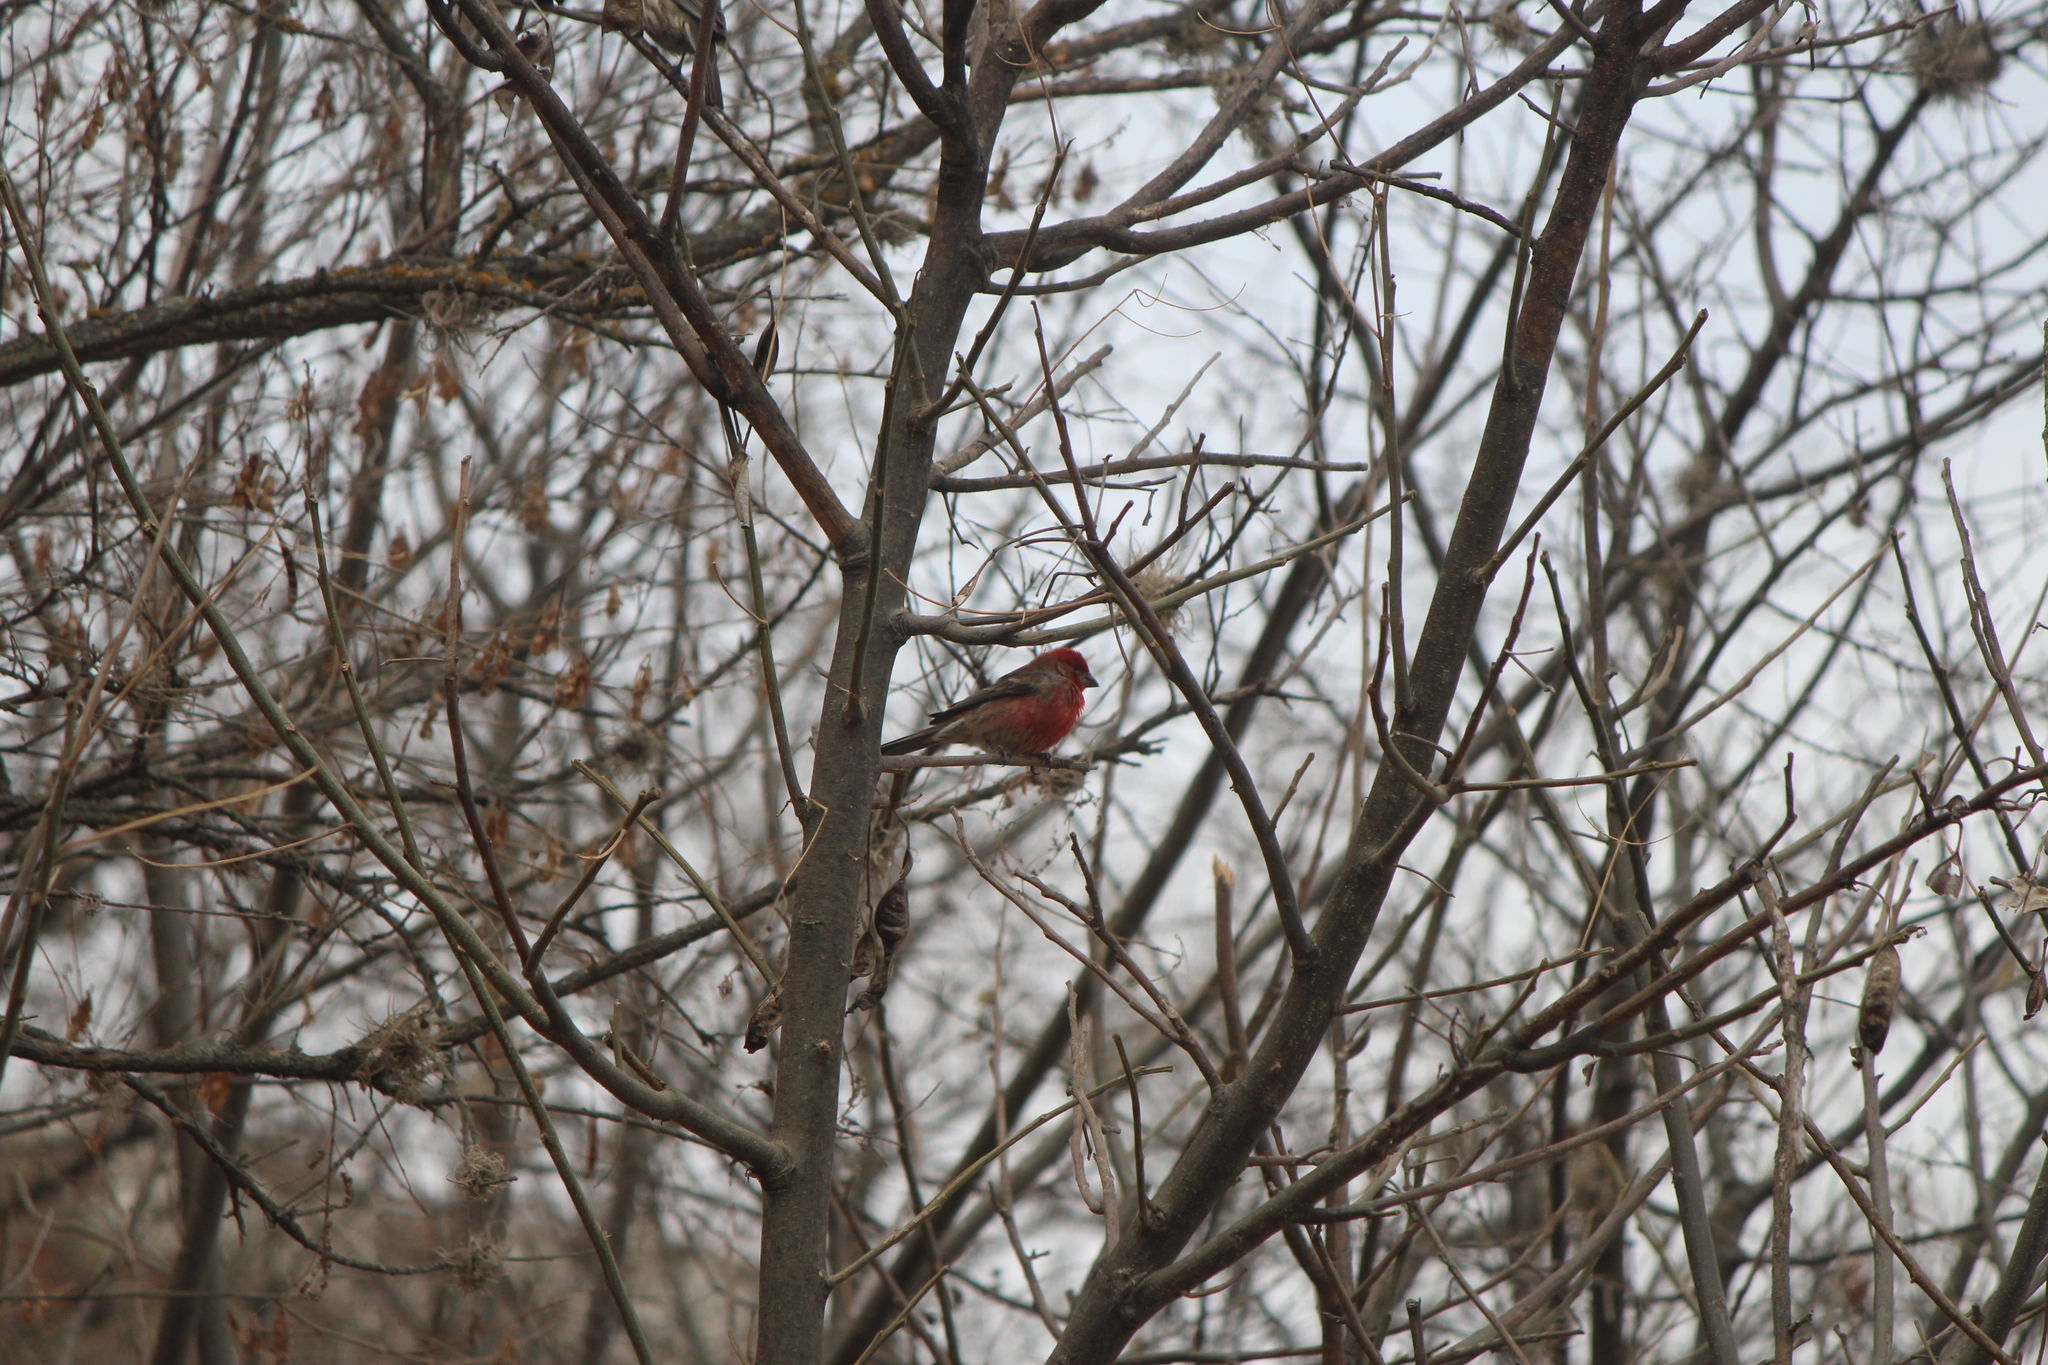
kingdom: Animalia
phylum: Chordata
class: Aves
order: Passeriformes
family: Fringillidae
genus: Haemorhous
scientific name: Haemorhous mexicanus
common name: House finch
